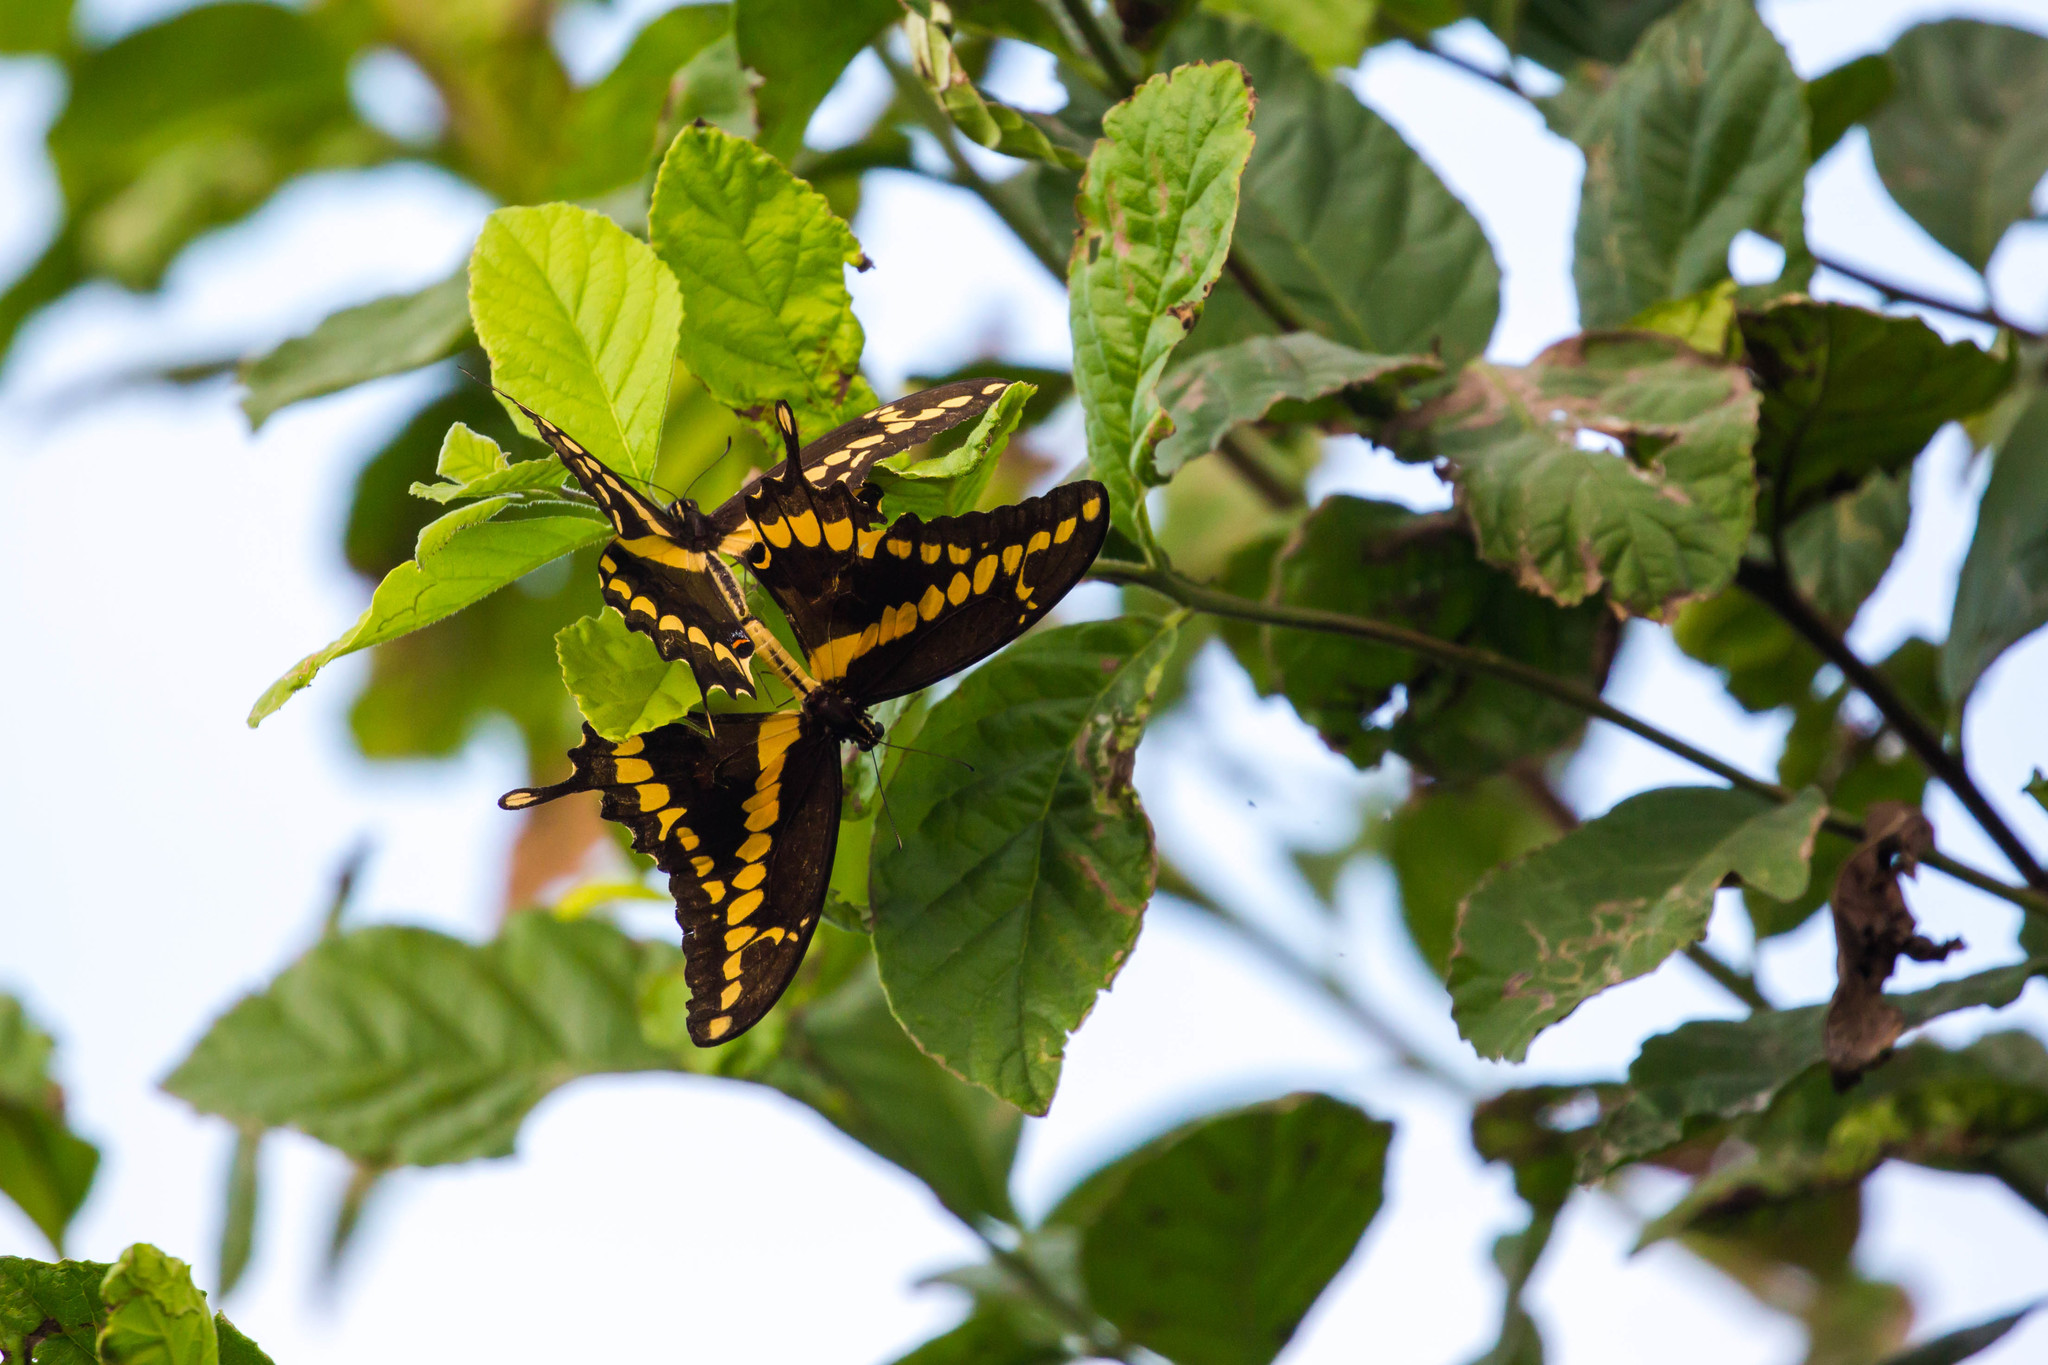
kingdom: Animalia
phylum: Arthropoda
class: Insecta
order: Lepidoptera
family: Papilionidae
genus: Papilio
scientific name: Papilio rumiko
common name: Western giant swallowtail
